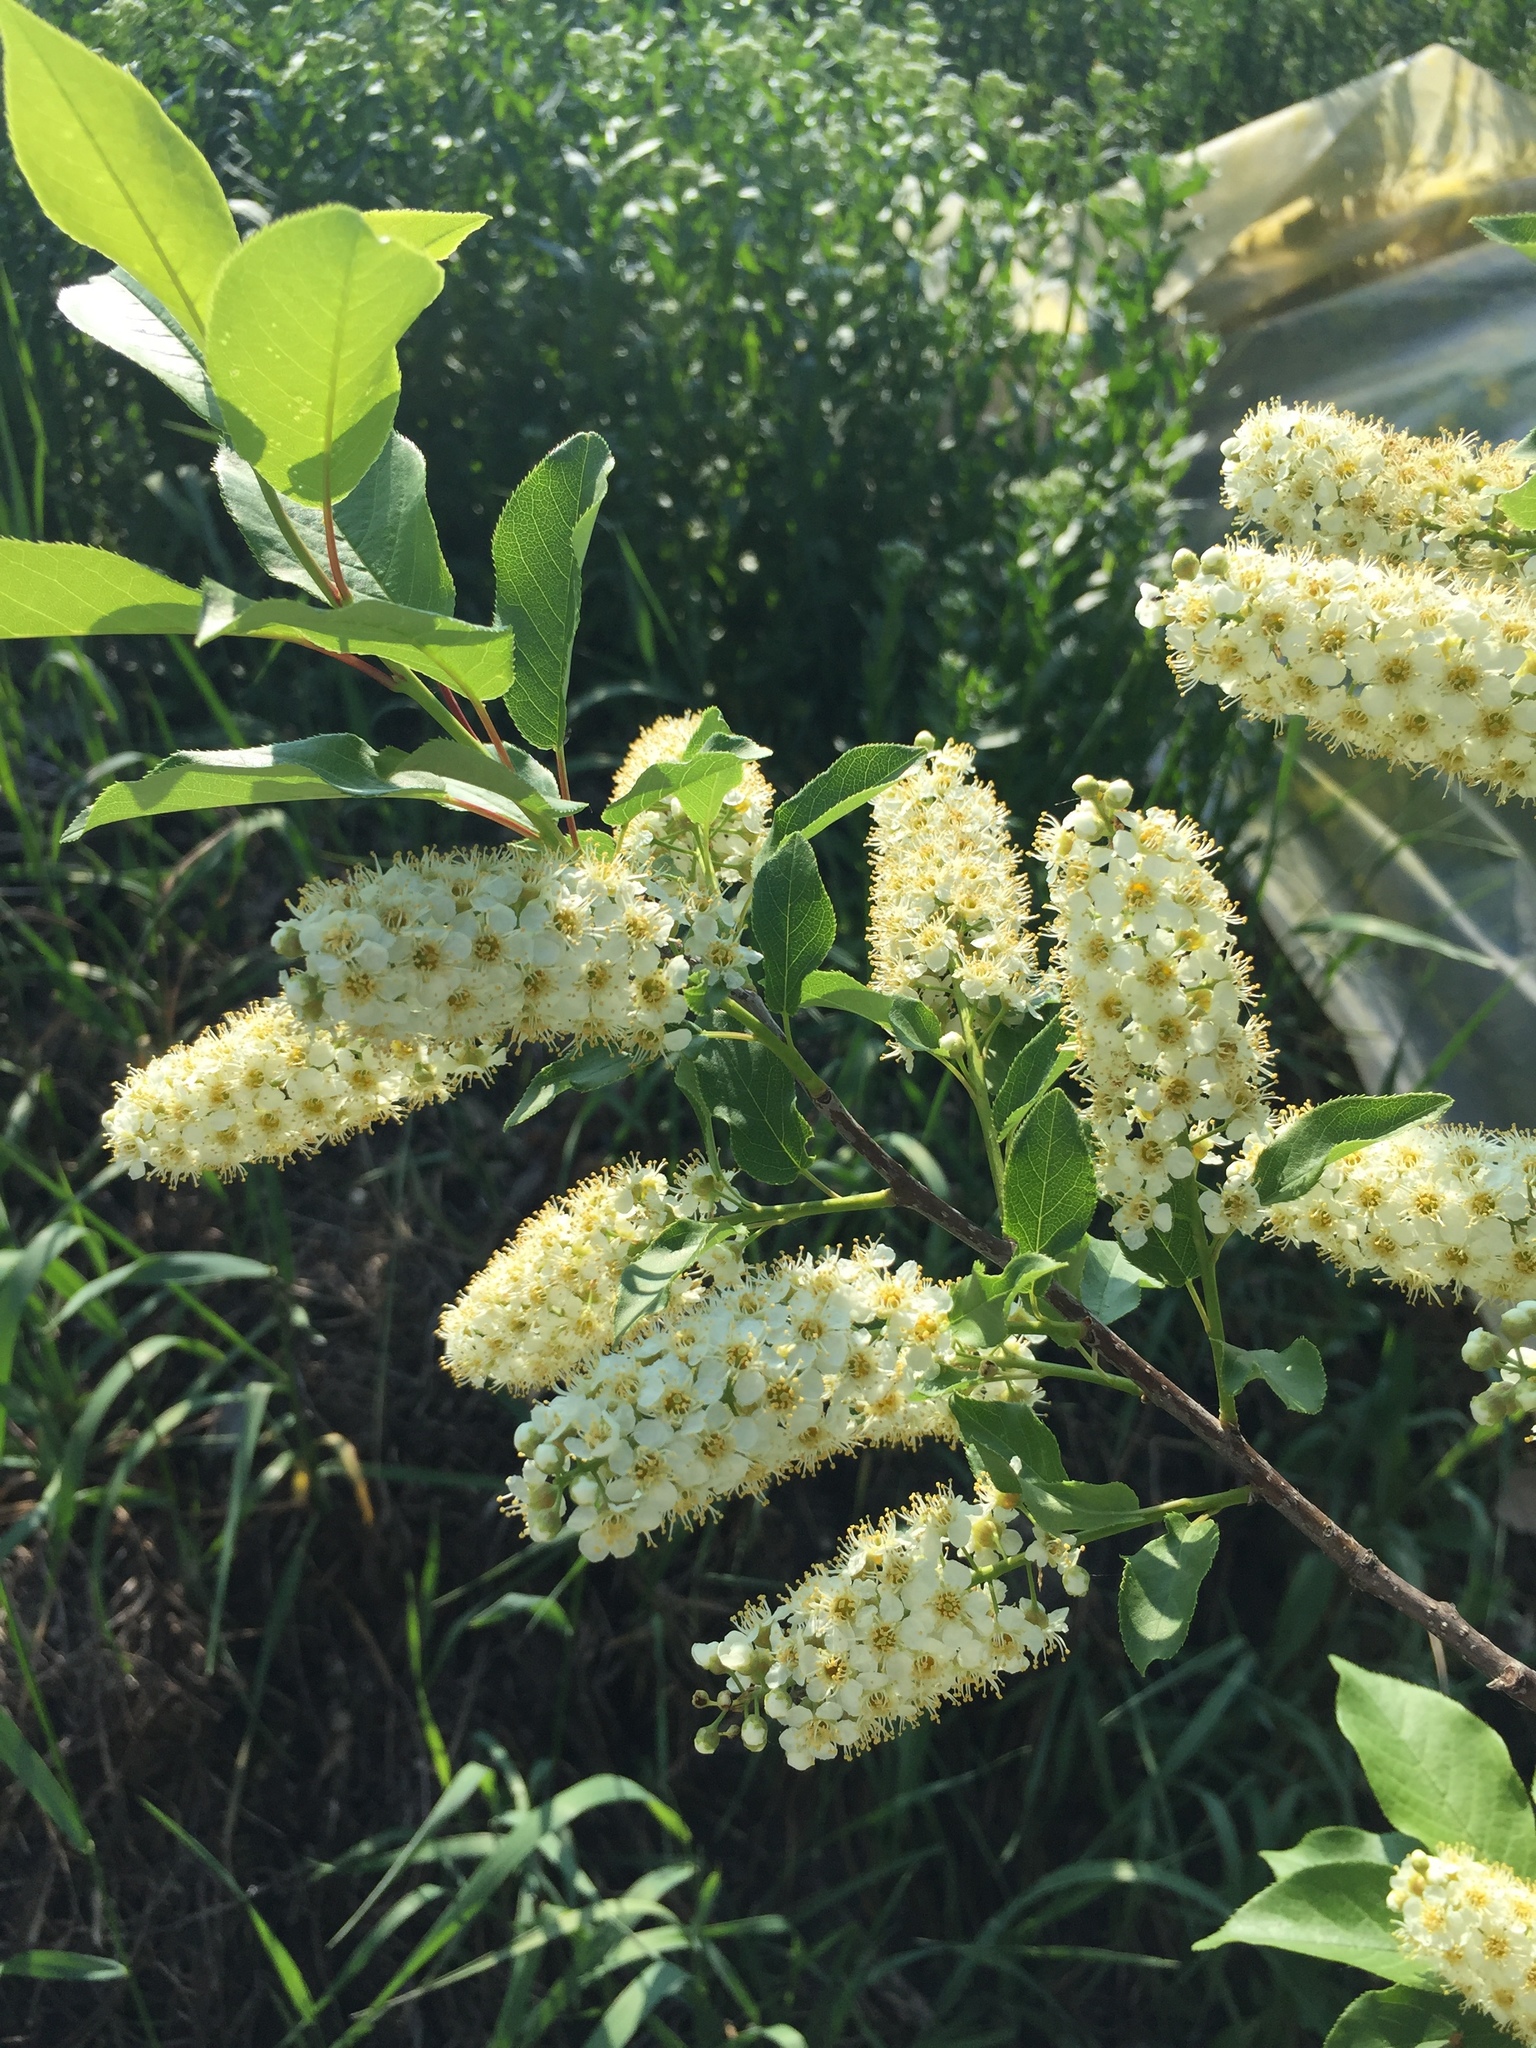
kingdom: Plantae
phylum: Tracheophyta
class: Magnoliopsida
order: Rosales
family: Rosaceae
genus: Prunus
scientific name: Prunus virginiana
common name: Chokecherry
